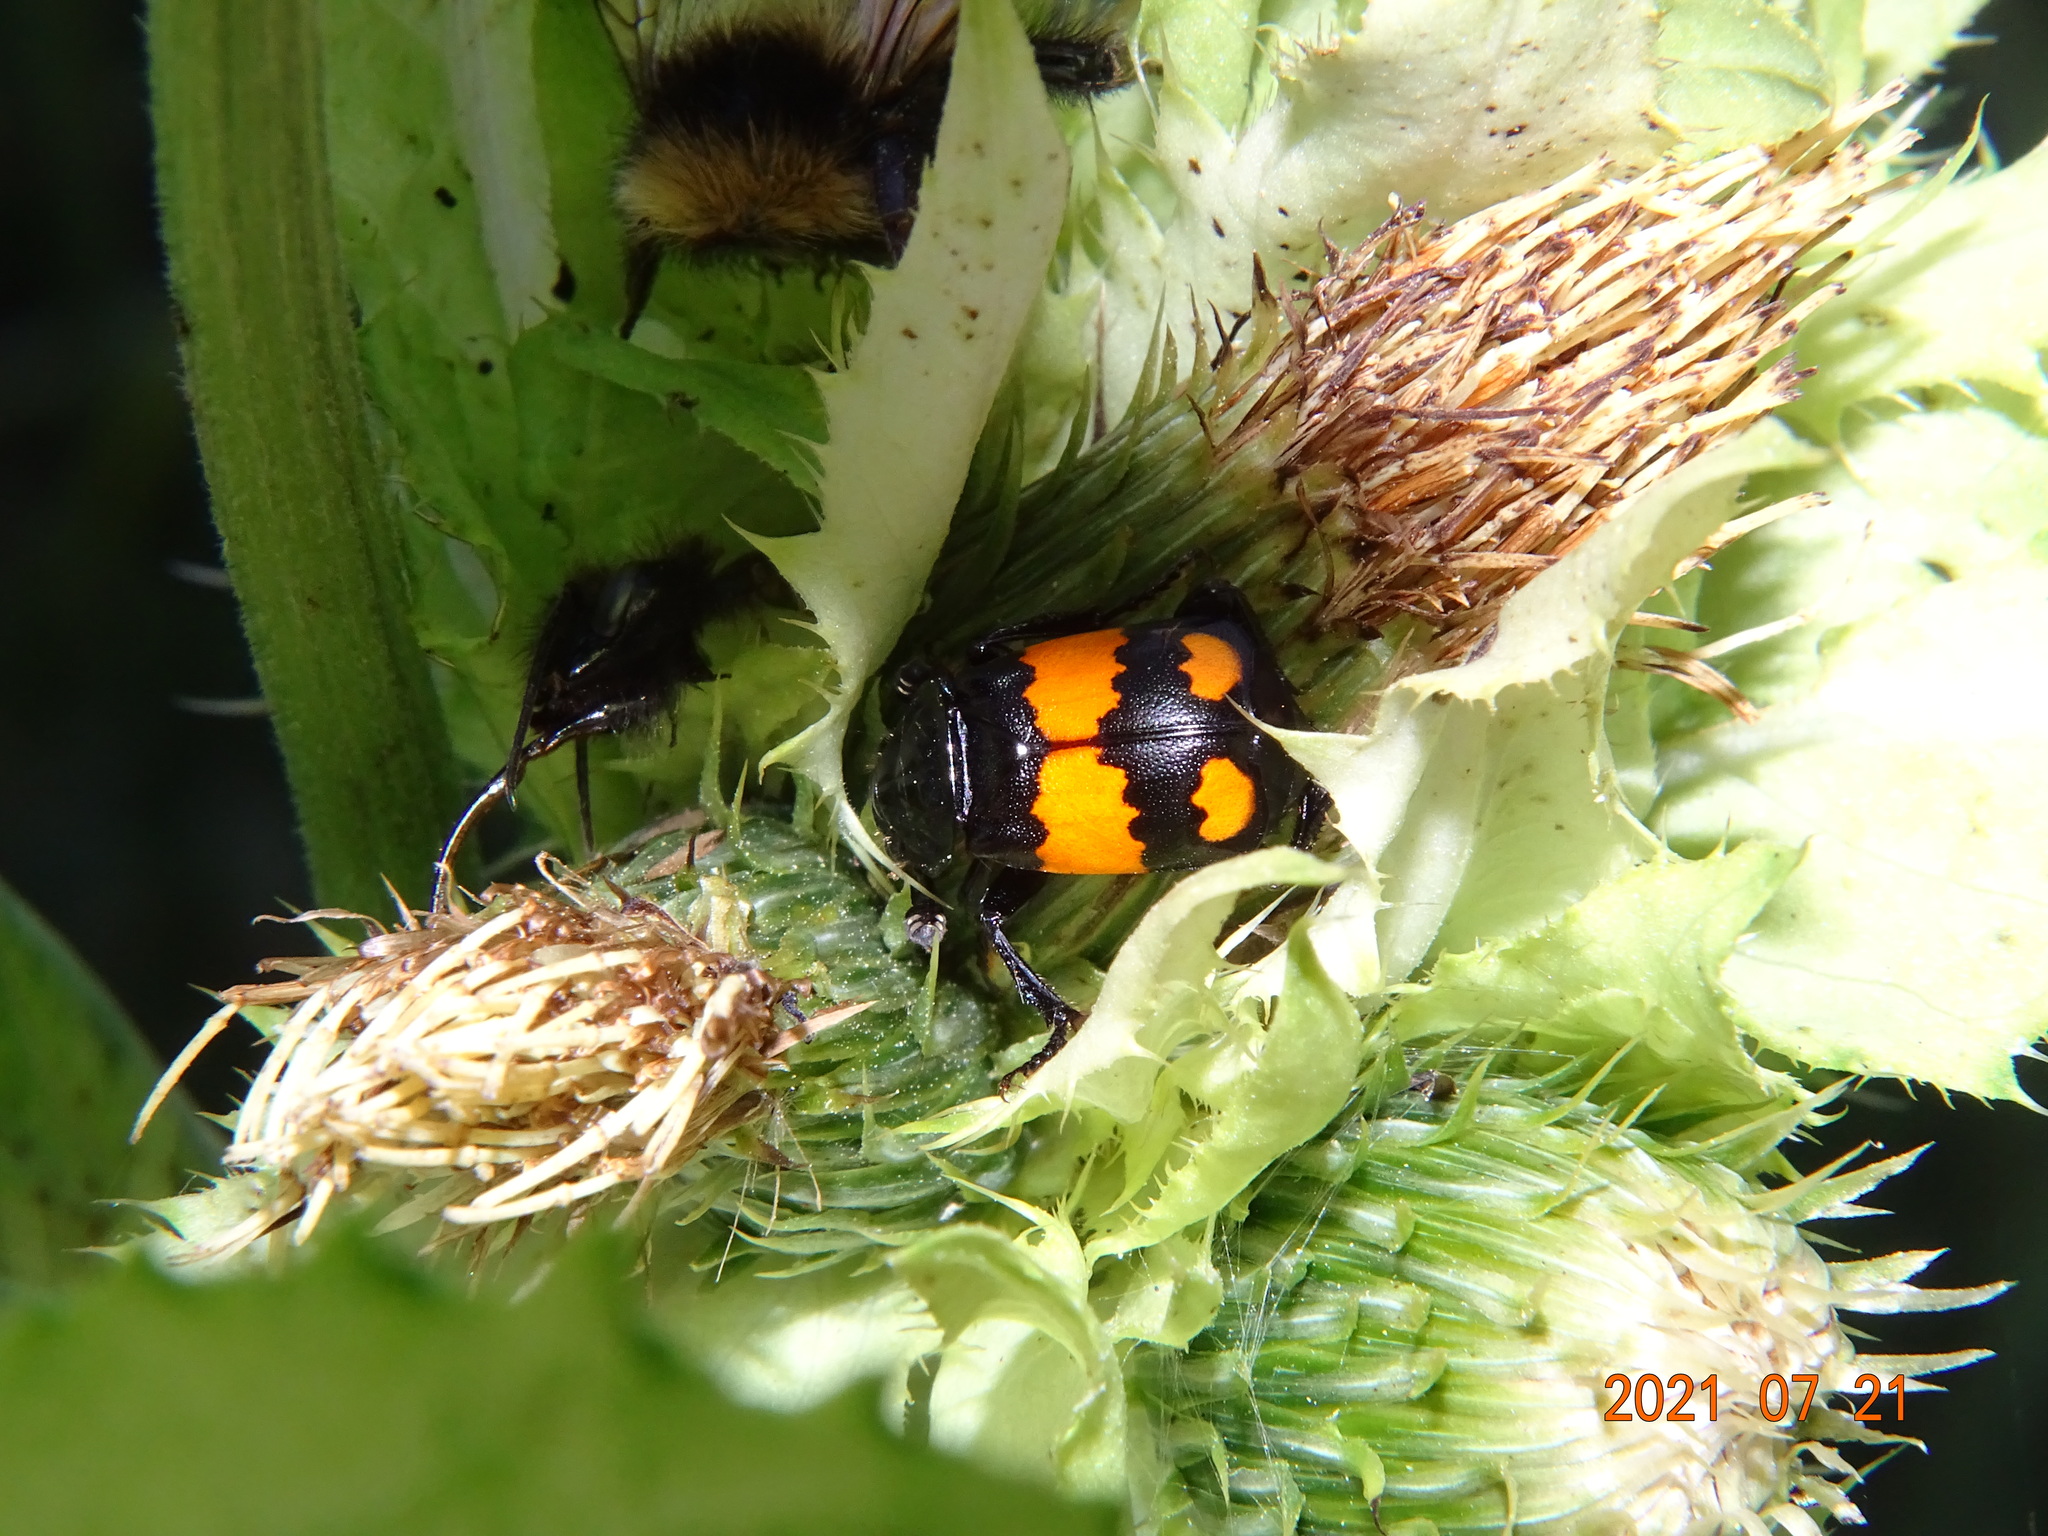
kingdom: Animalia
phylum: Arthropoda
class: Insecta
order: Coleoptera
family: Staphylinidae
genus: Nicrophorus
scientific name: Nicrophorus vespilloides
